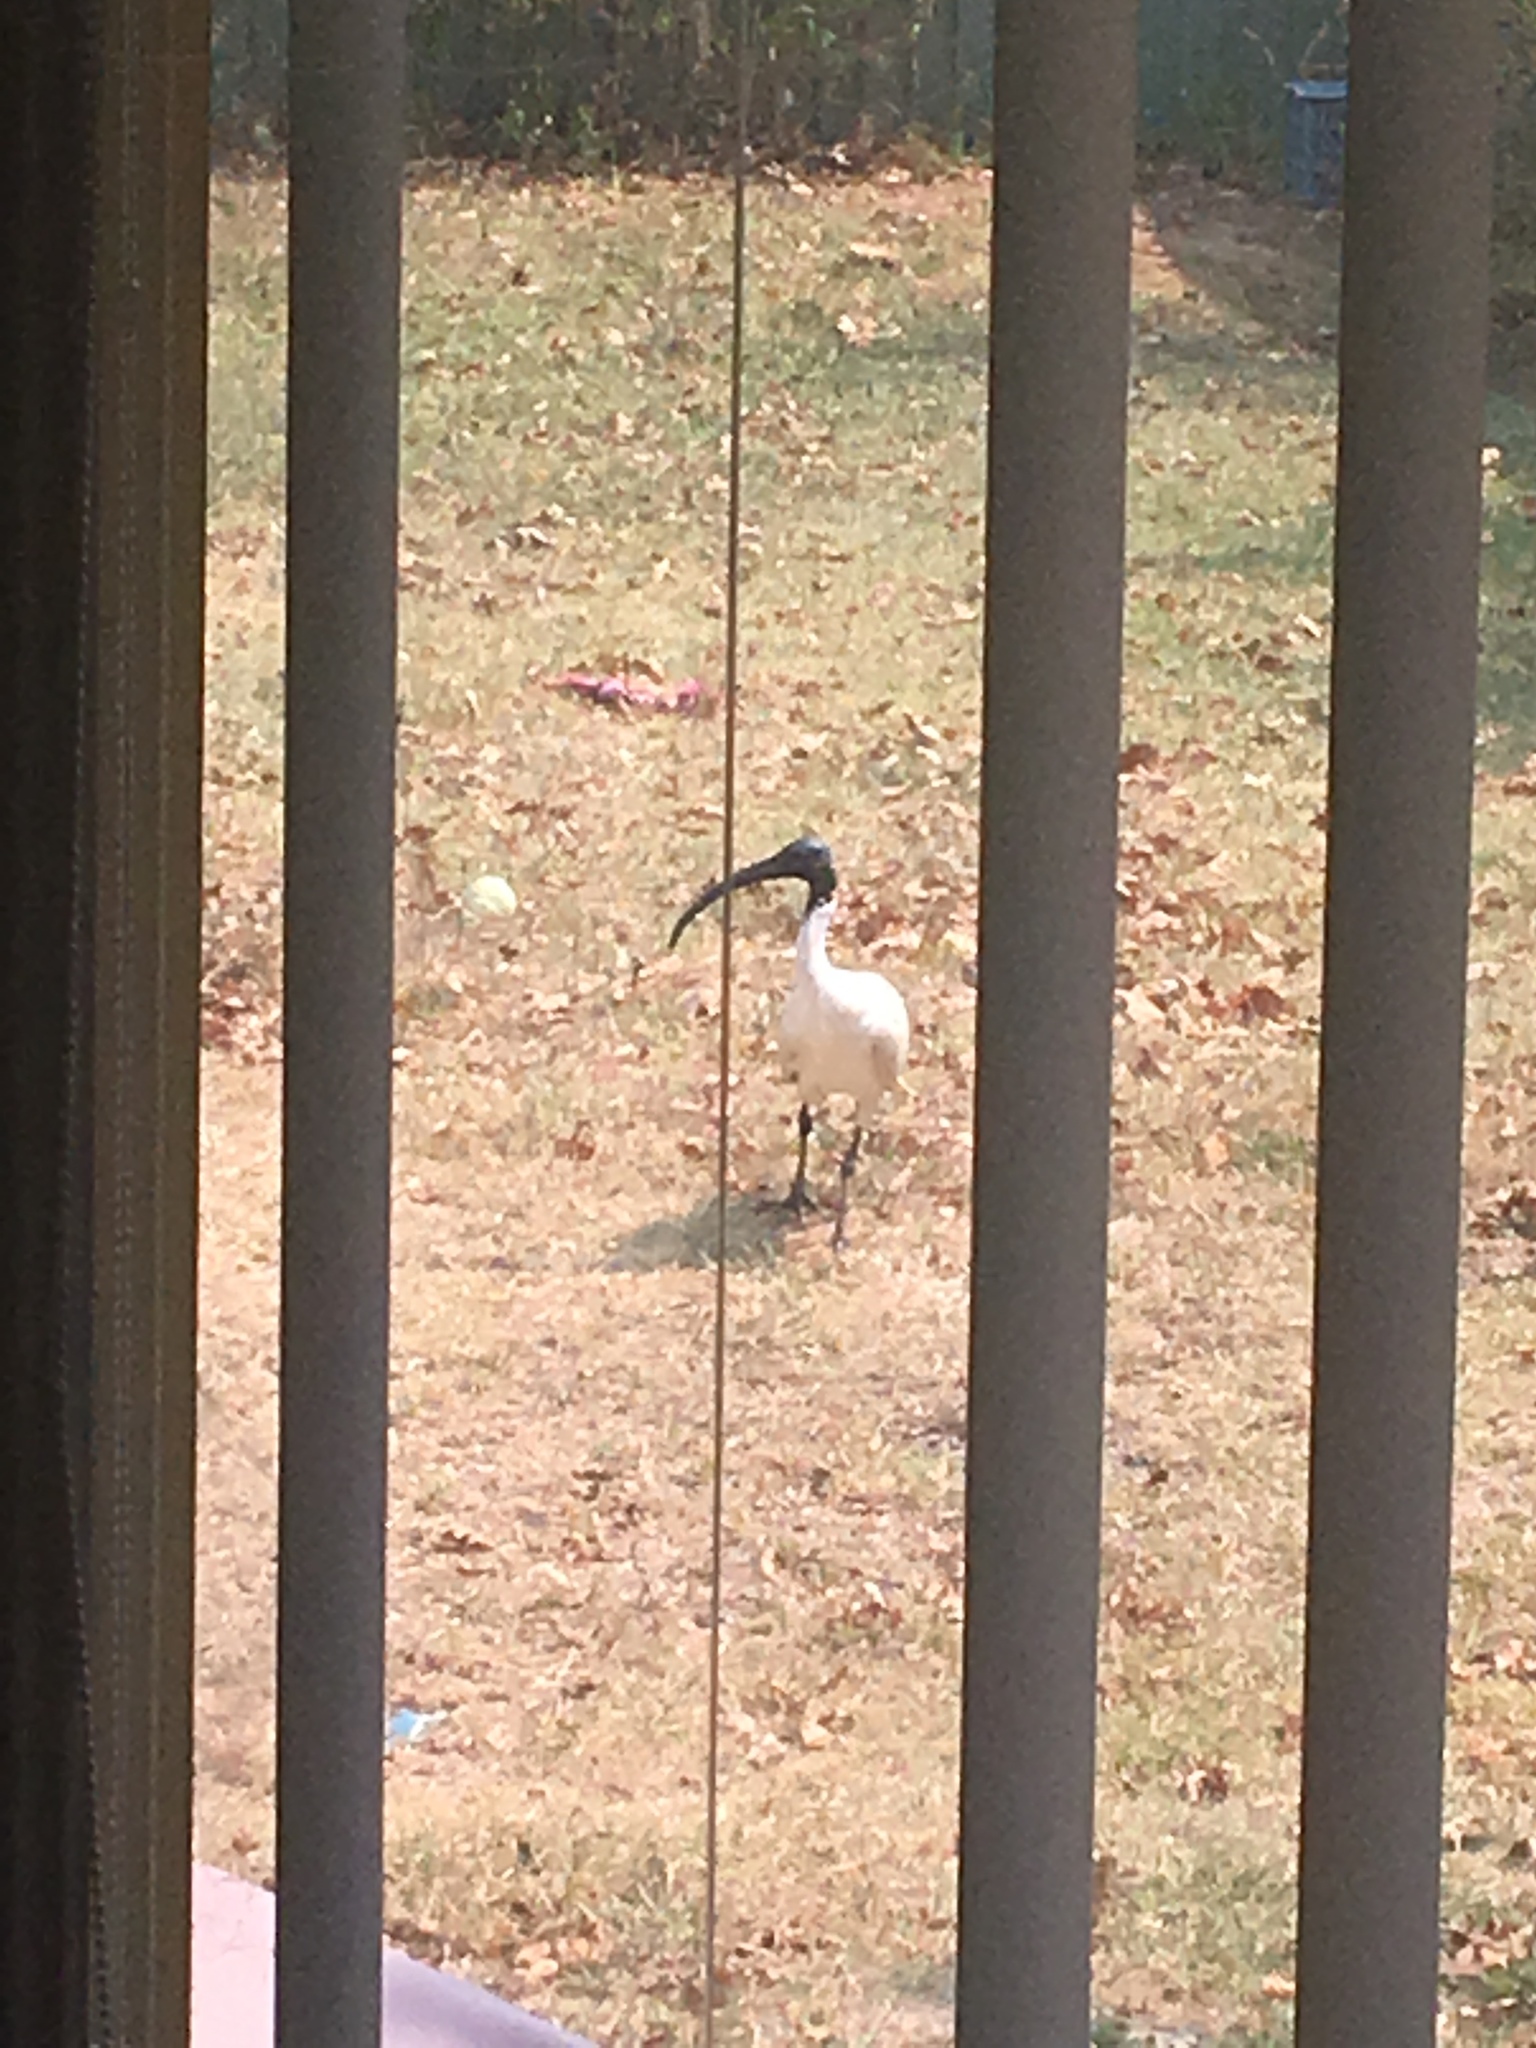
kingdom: Animalia
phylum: Chordata
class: Aves
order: Pelecaniformes
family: Threskiornithidae
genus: Threskiornis
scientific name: Threskiornis molucca
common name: Australian white ibis
